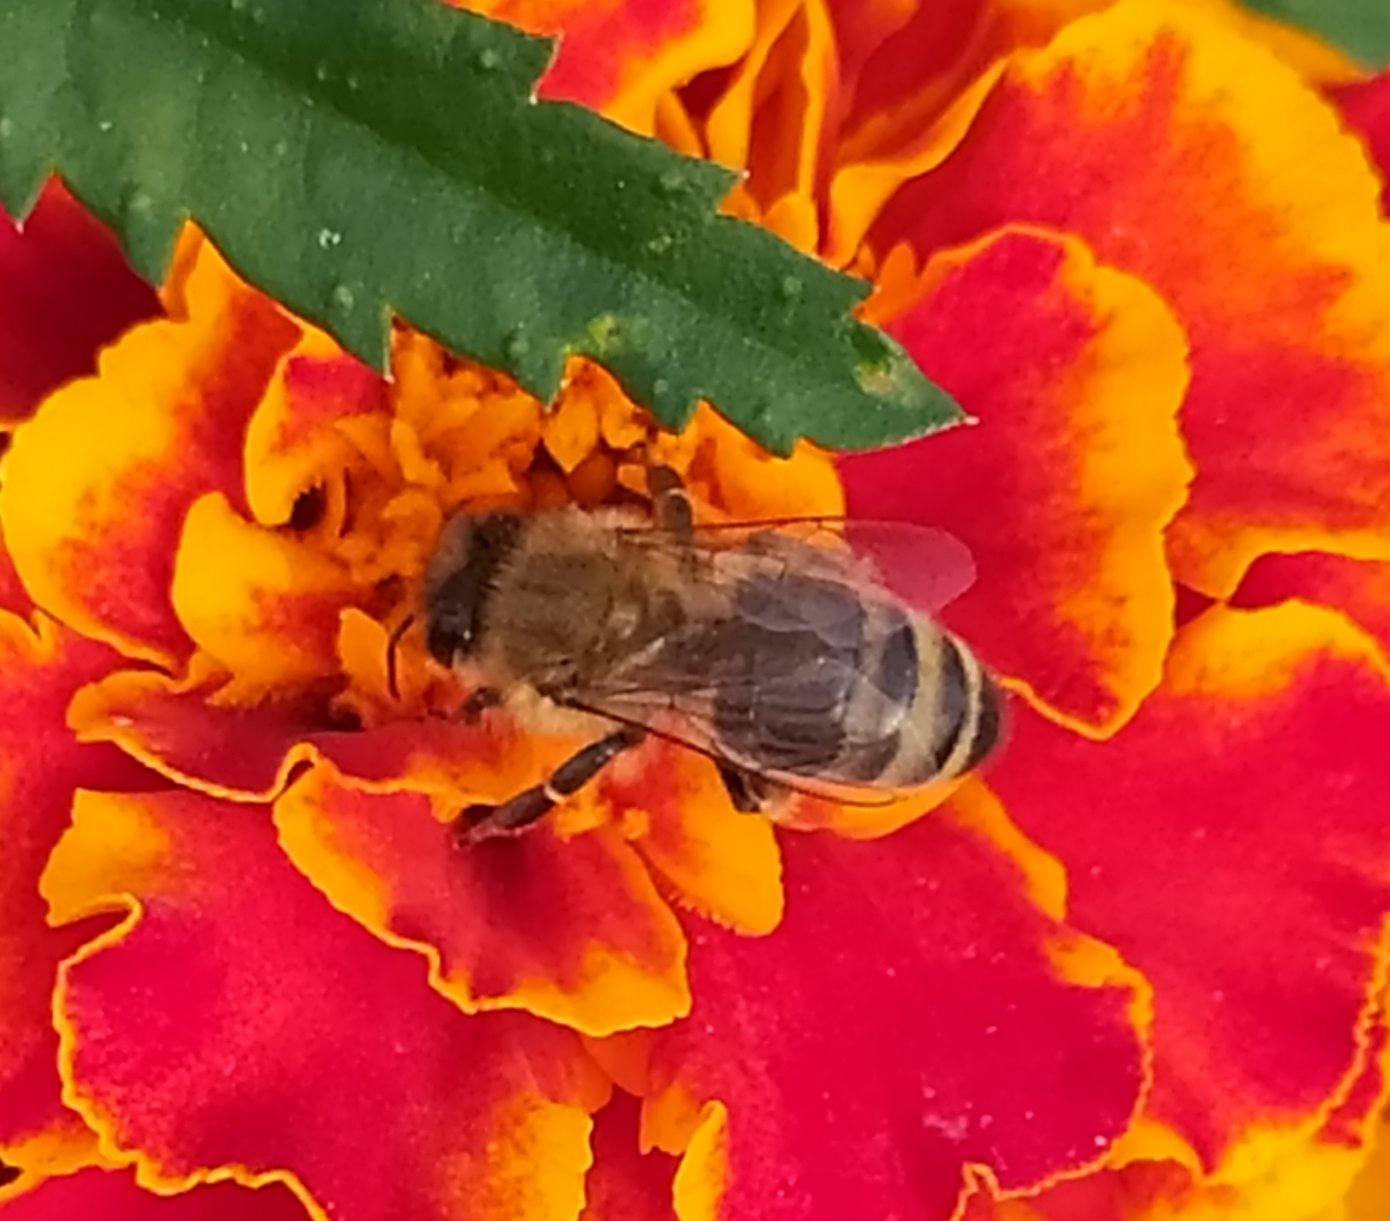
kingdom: Animalia
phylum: Arthropoda
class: Insecta
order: Hymenoptera
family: Apidae
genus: Apis
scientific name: Apis mellifera
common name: Honey bee
